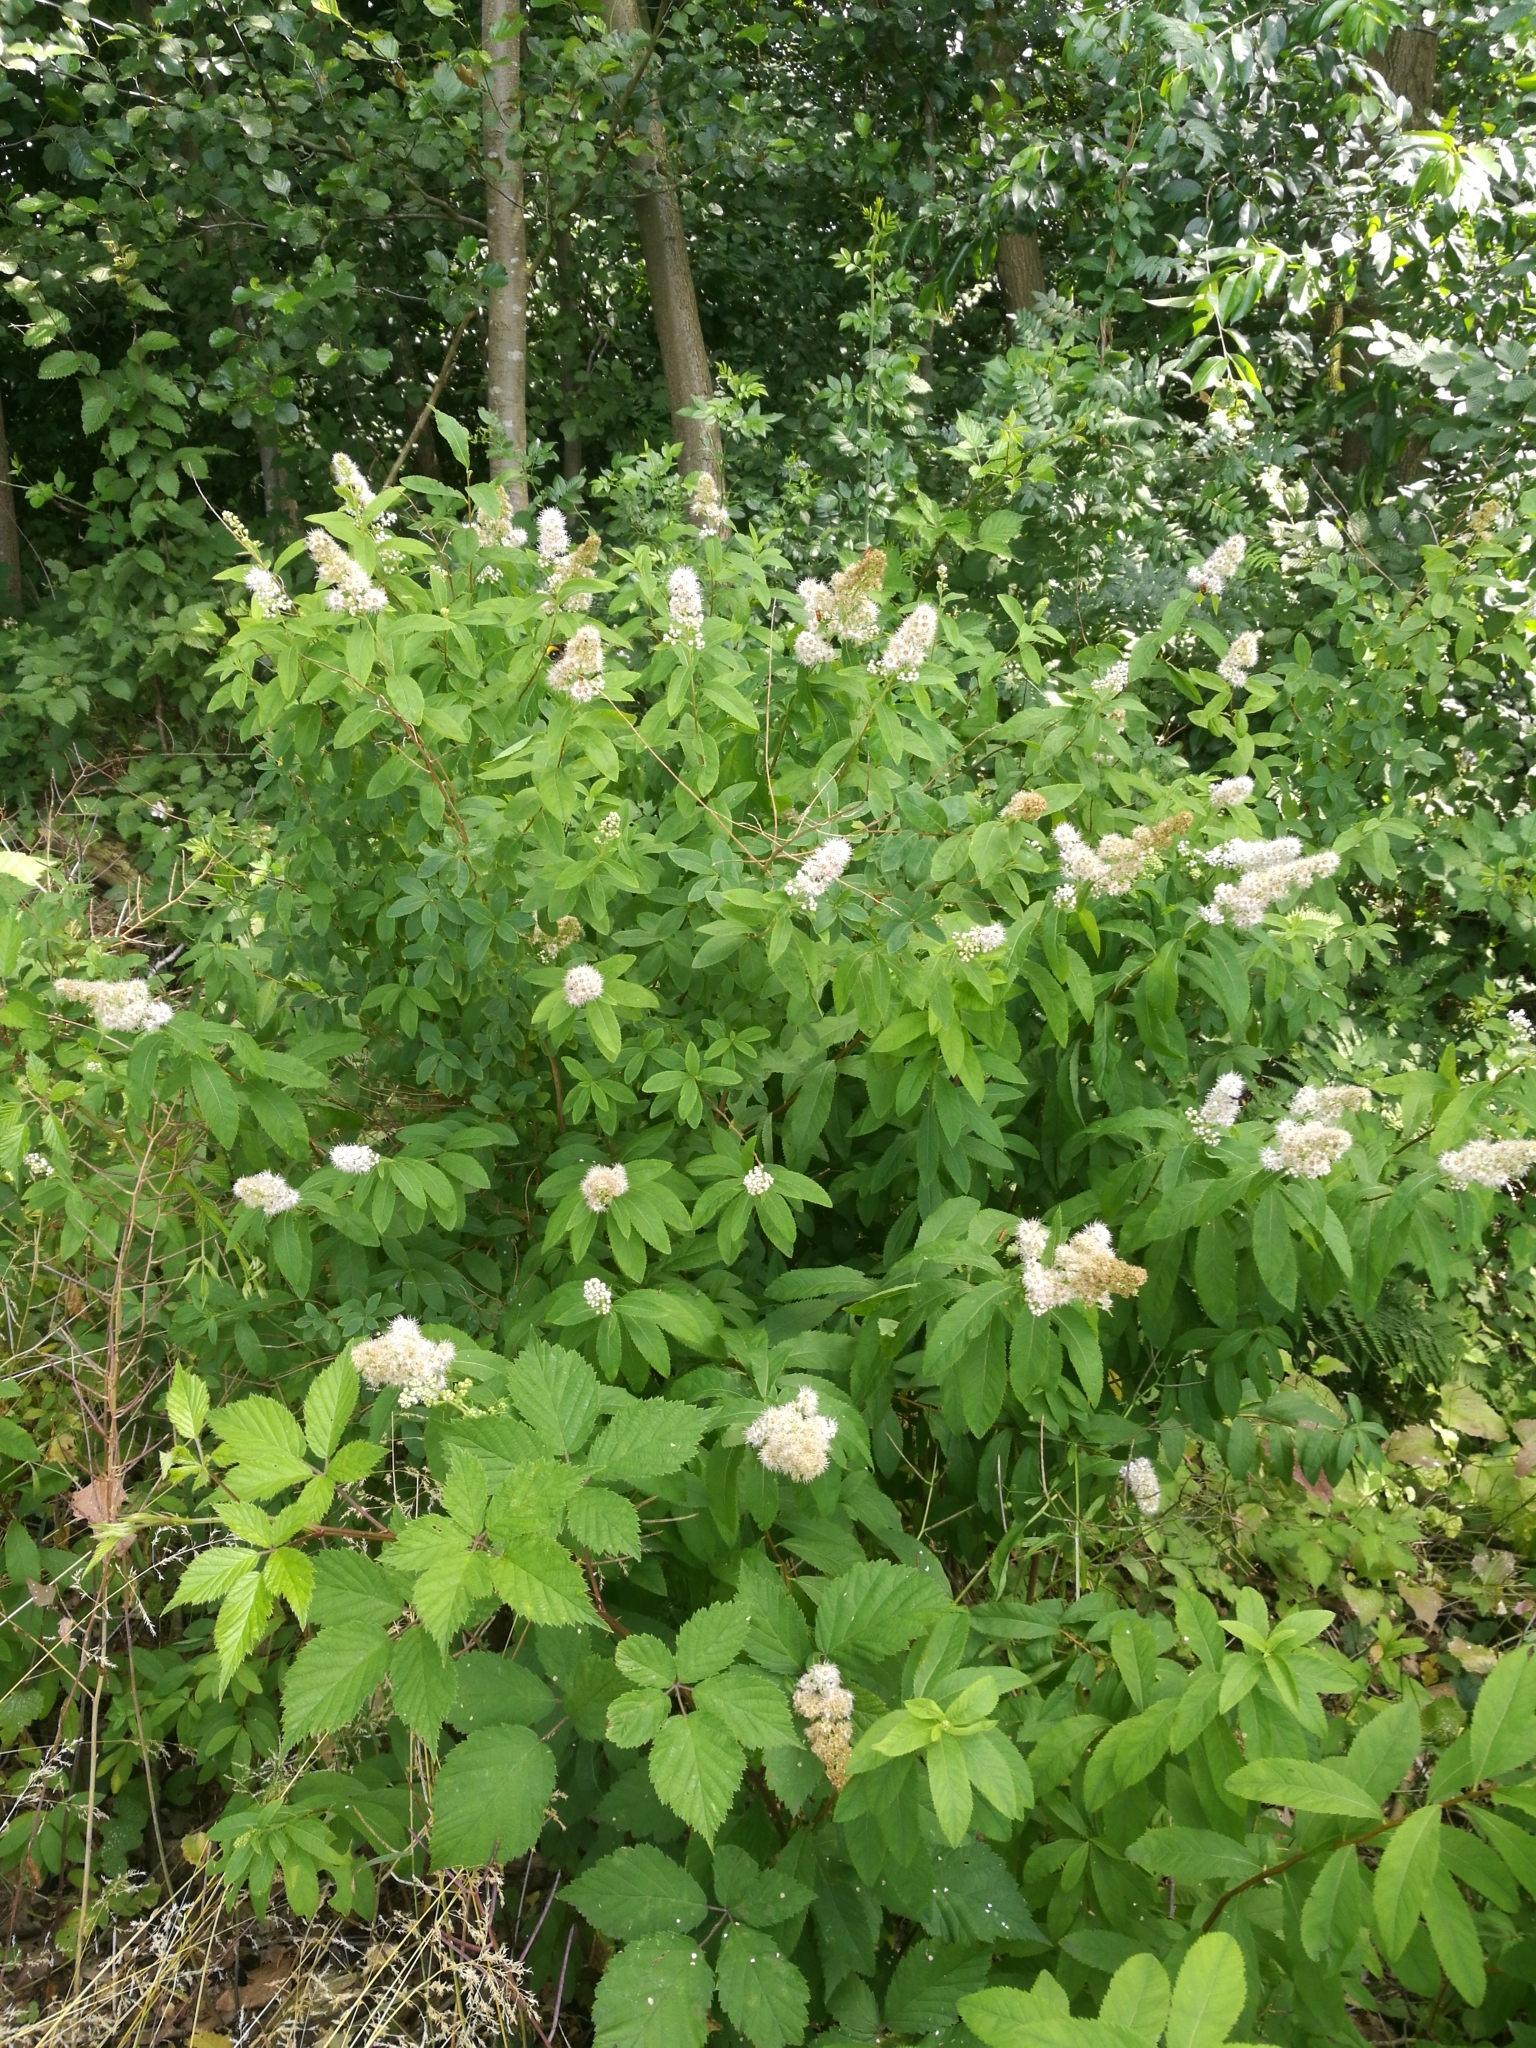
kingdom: Plantae
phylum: Tracheophyta
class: Magnoliopsida
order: Rosales
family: Rosaceae
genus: Spiraea
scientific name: Spiraea alba
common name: Pale bridewort
